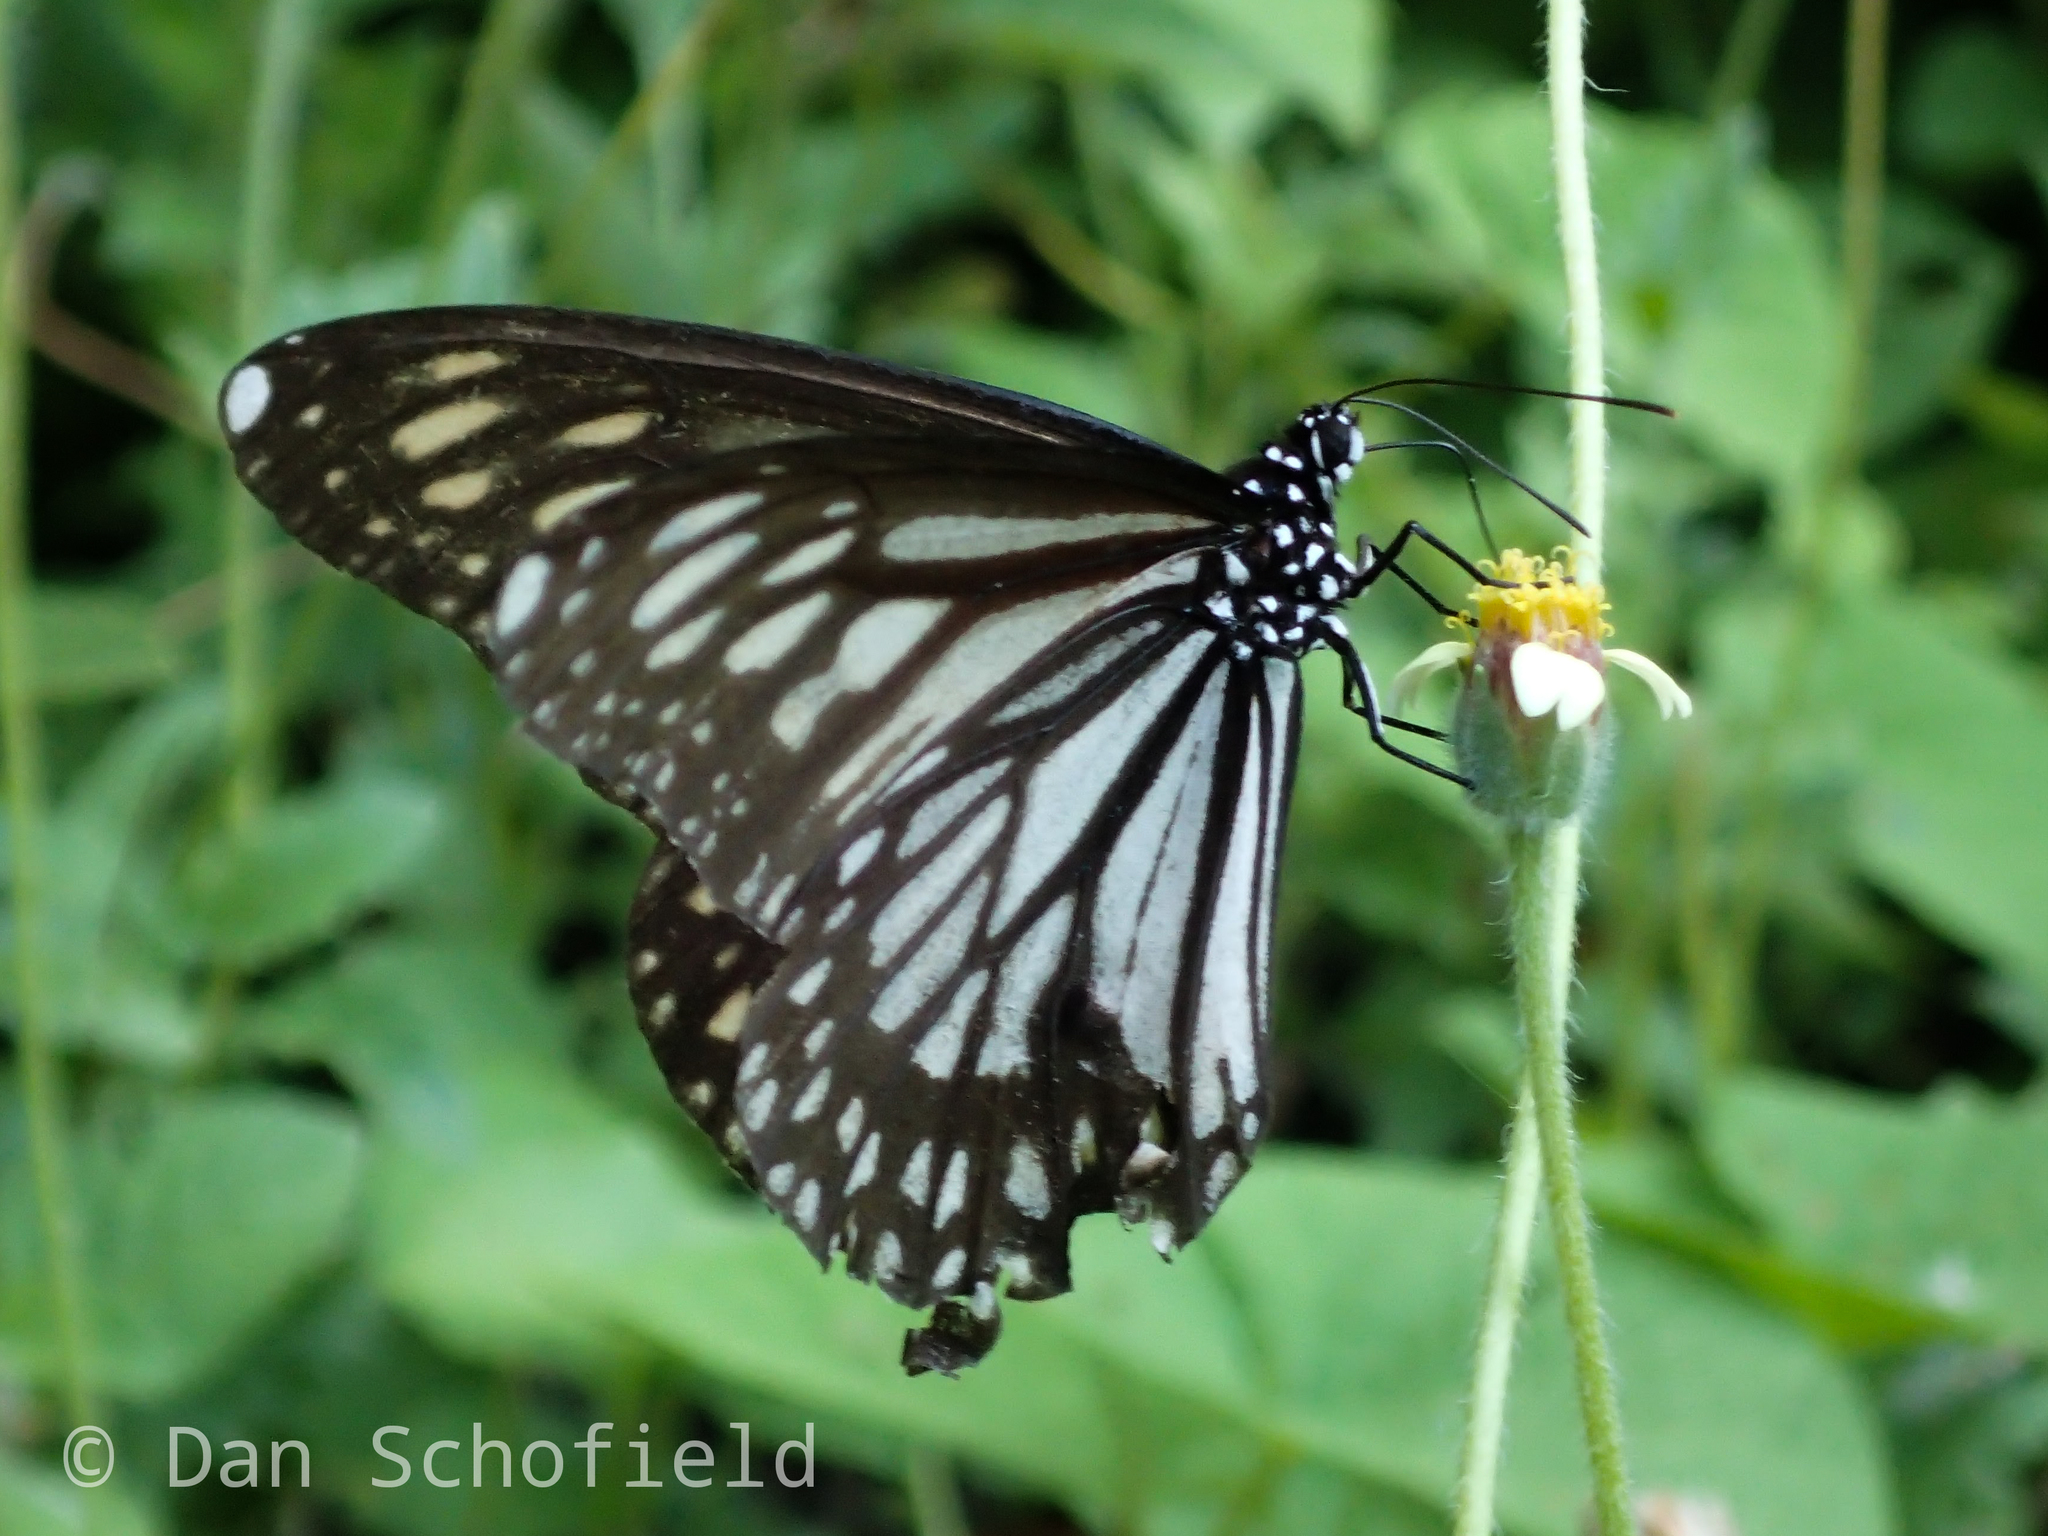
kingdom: Animalia
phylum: Arthropoda
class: Insecta
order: Lepidoptera
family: Nymphalidae
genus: Danaus
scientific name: Danaus ismare
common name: Ismare tiger butterfly
